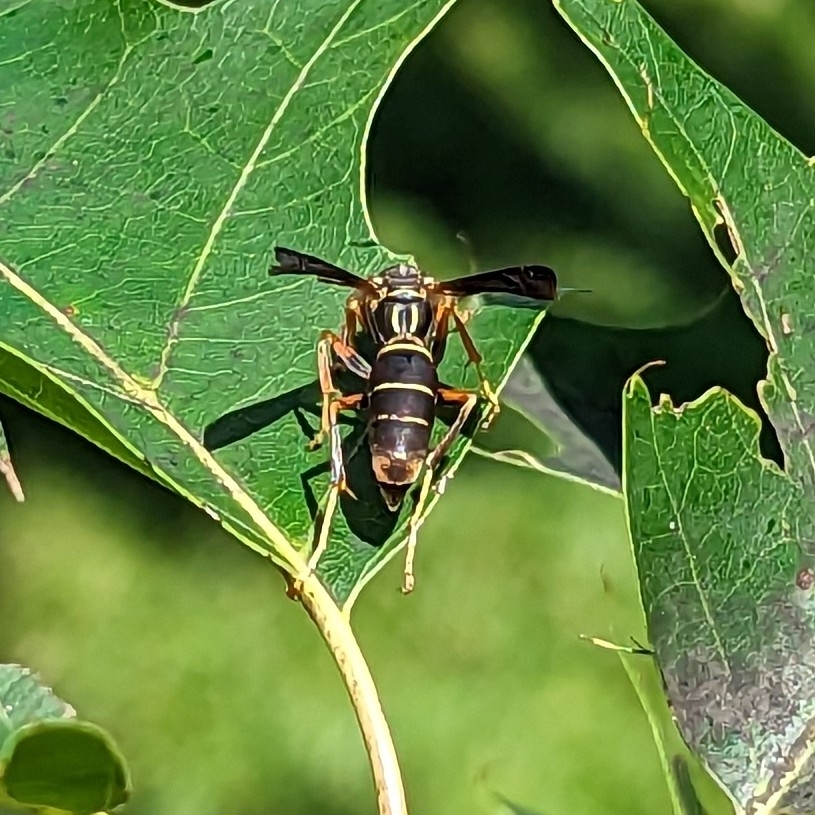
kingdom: Animalia
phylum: Arthropoda
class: Insecta
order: Hymenoptera
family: Eumenidae
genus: Polistes
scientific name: Polistes fuscatus
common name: Dark paper wasp
